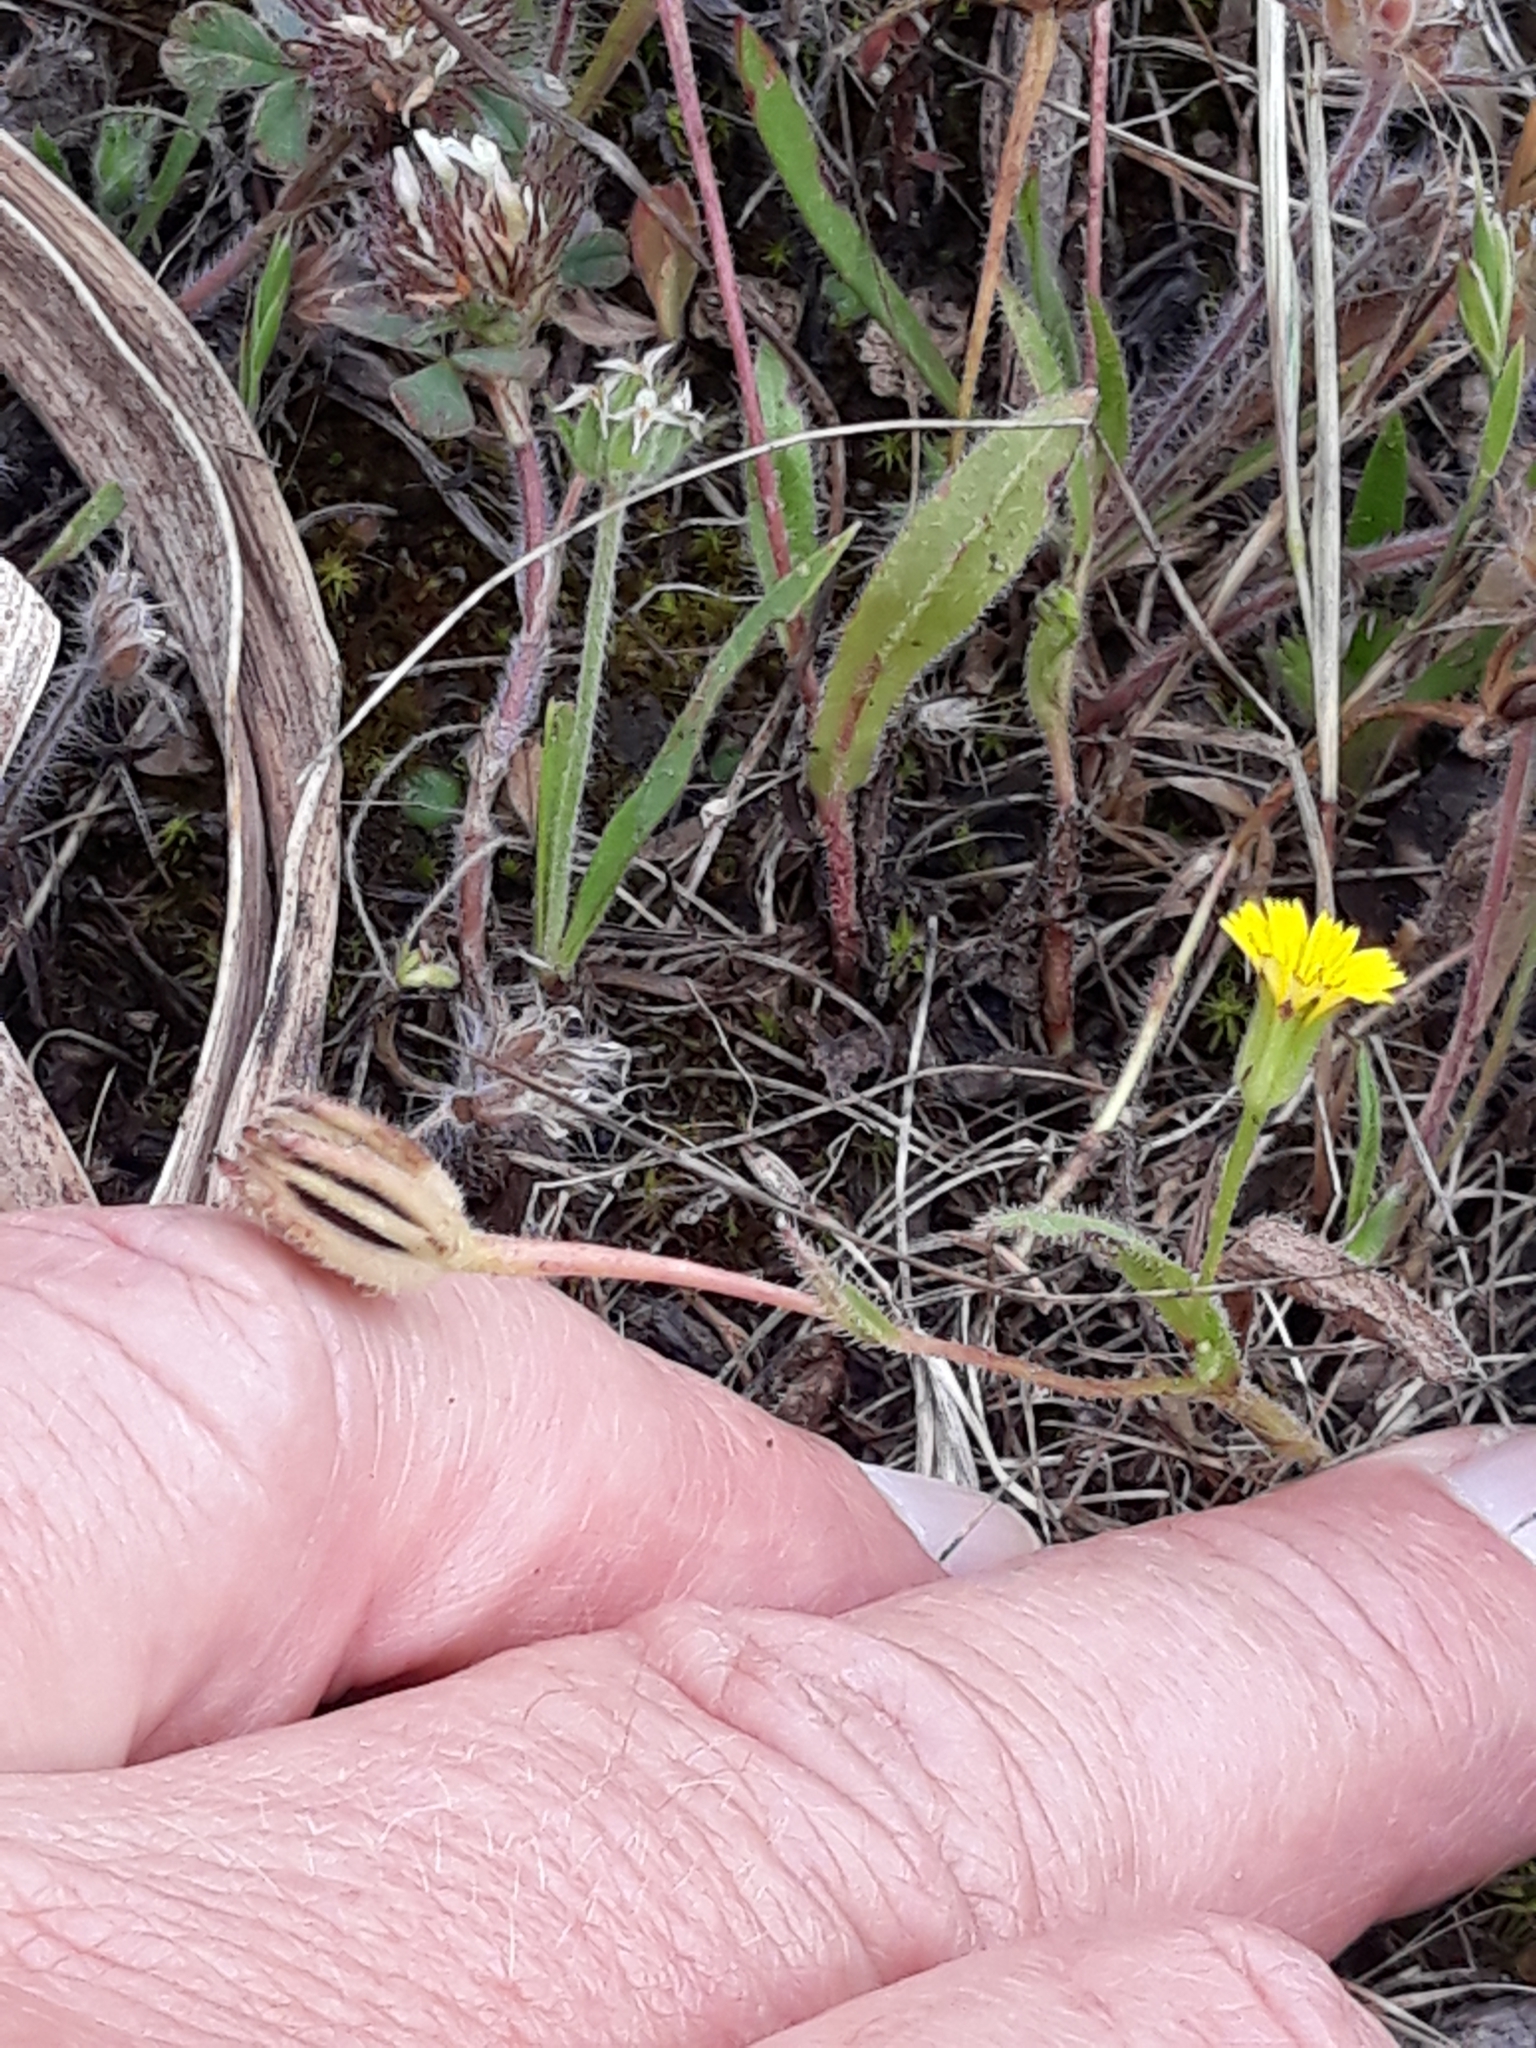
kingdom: Plantae
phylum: Tracheophyta
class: Magnoliopsida
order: Asterales
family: Asteraceae
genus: Hedypnois
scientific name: Hedypnois rhagadioloides
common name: Cretan weed
